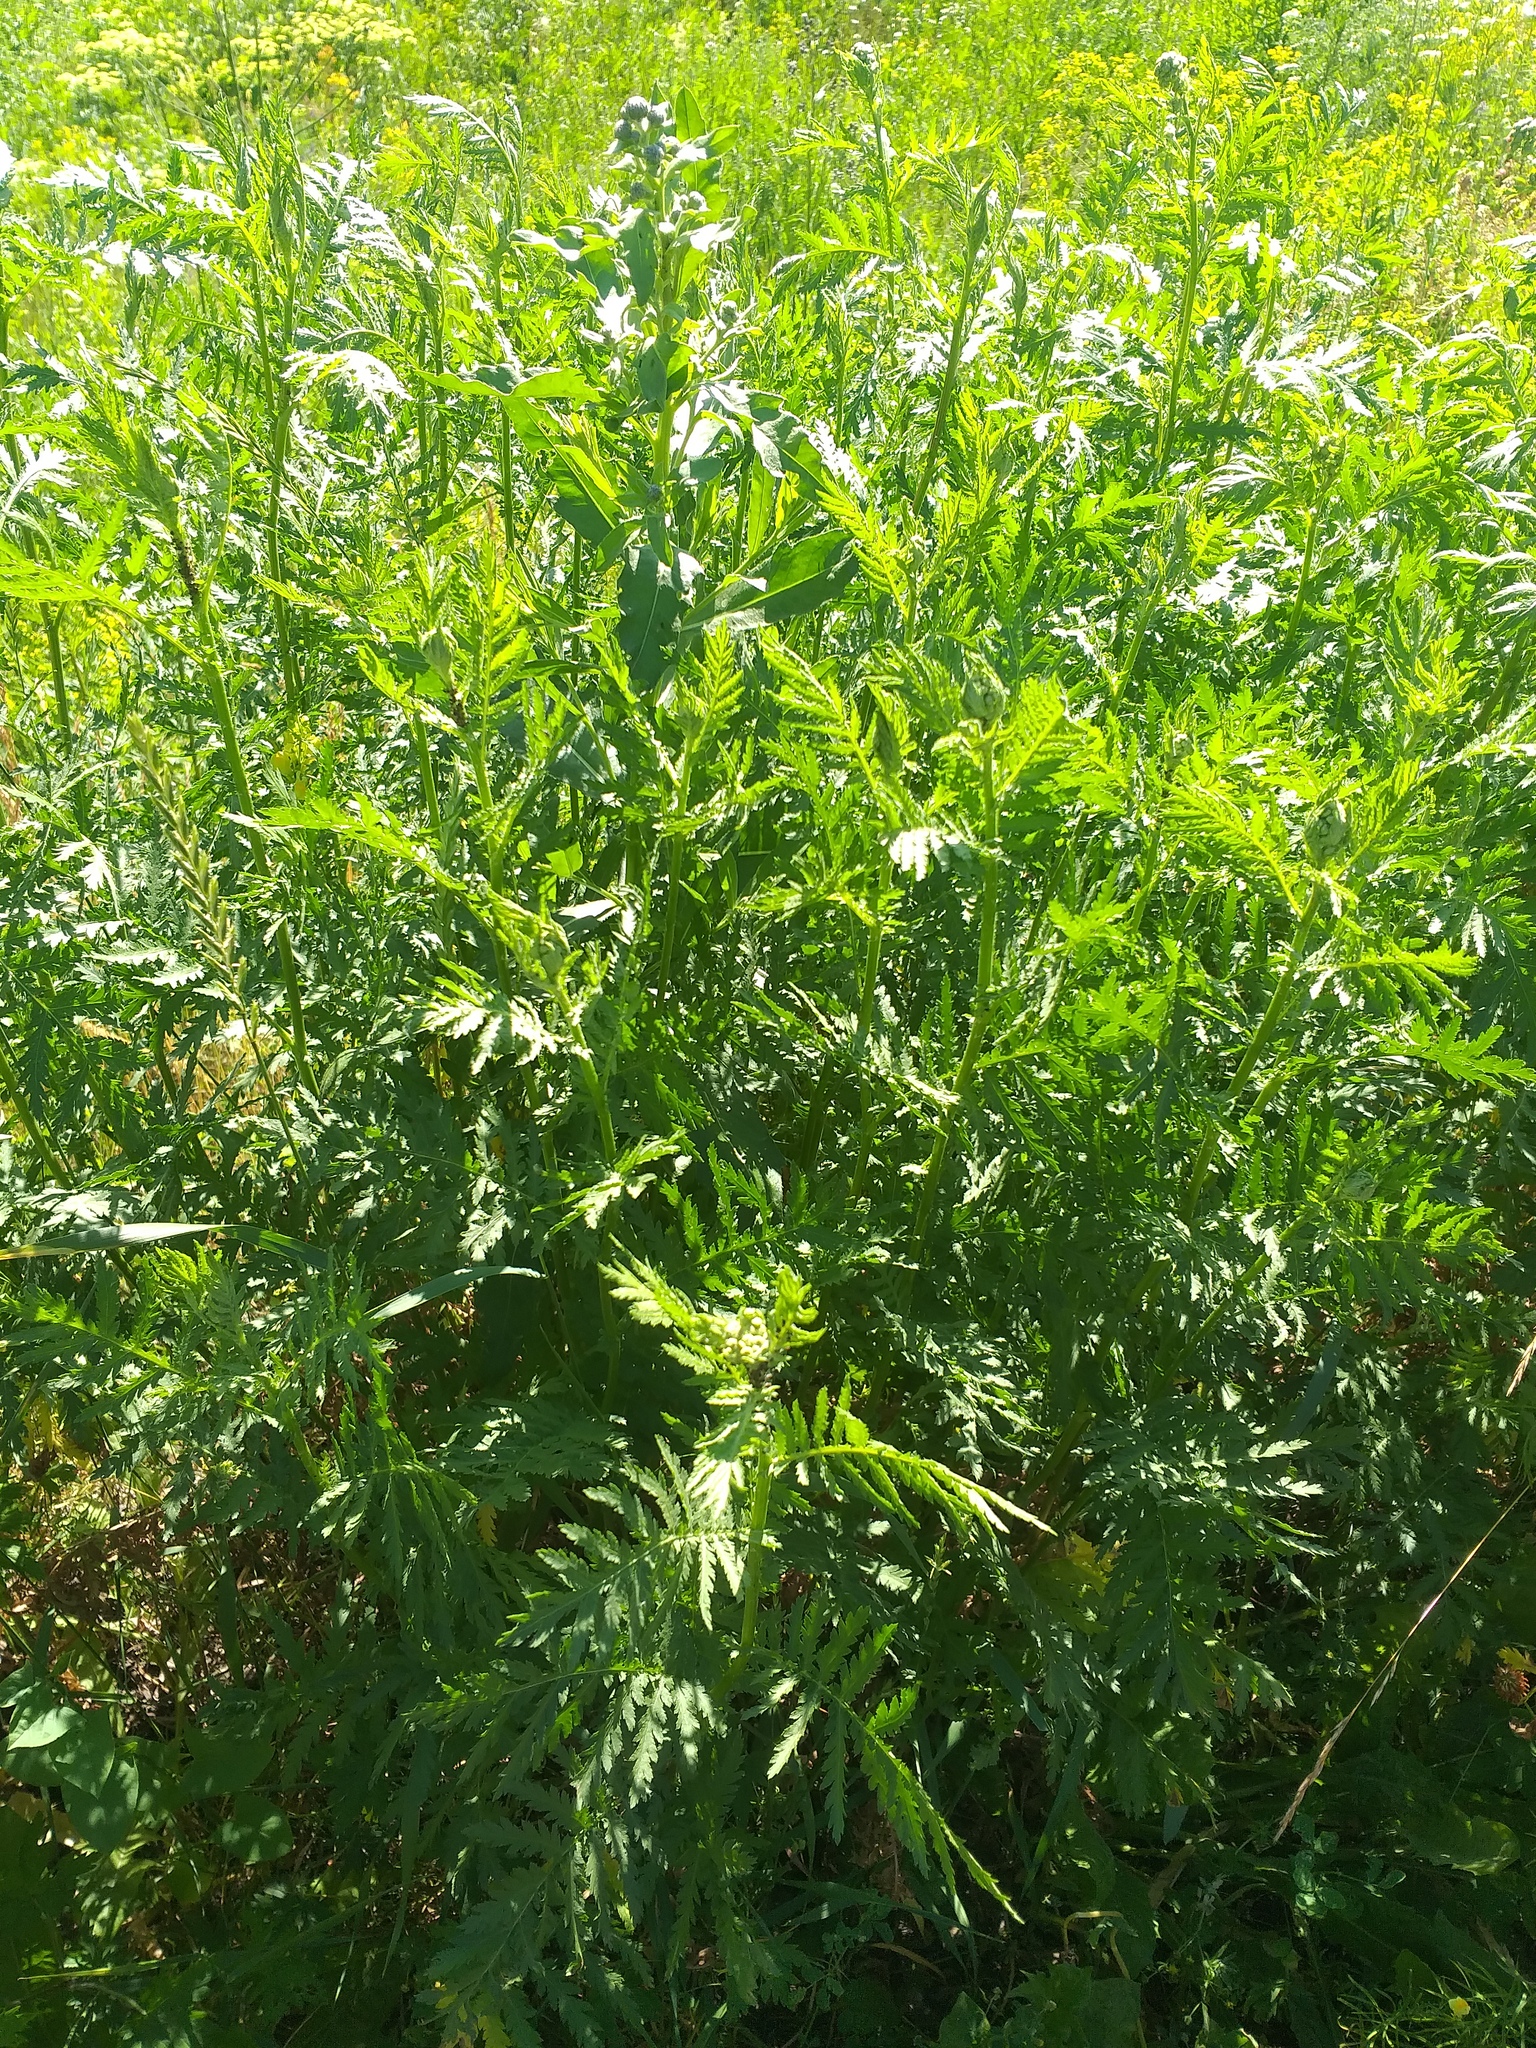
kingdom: Plantae
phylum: Tracheophyta
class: Magnoliopsida
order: Asterales
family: Asteraceae
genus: Tanacetum
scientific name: Tanacetum vulgare
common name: Common tansy
